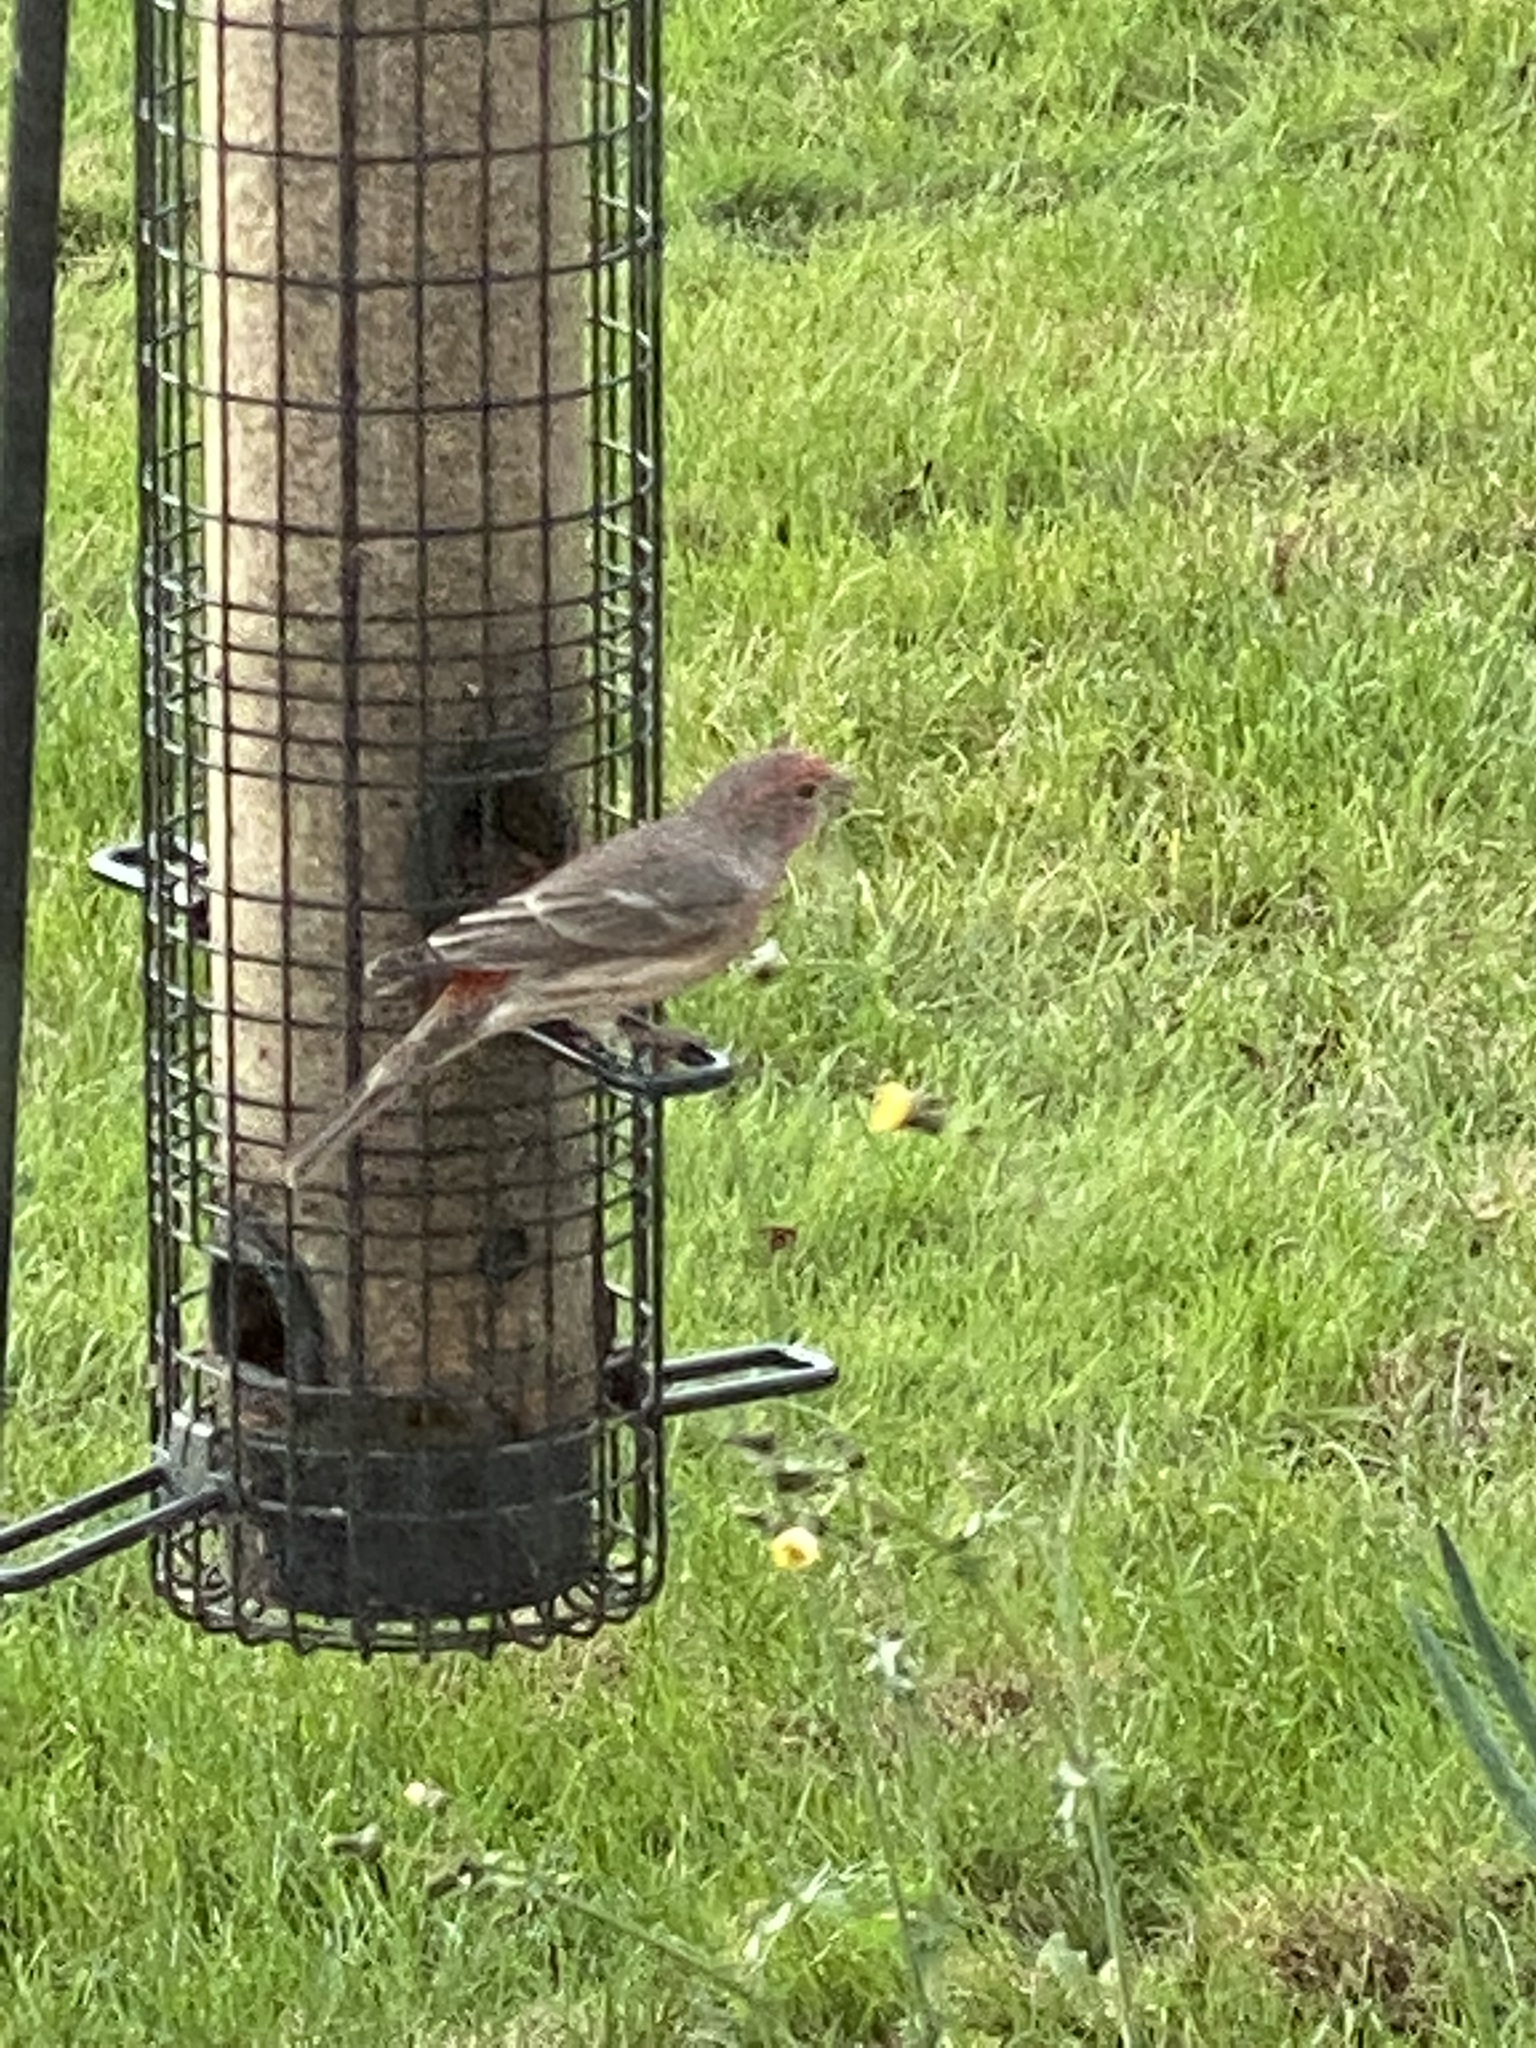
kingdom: Animalia
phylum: Chordata
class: Aves
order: Passeriformes
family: Fringillidae
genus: Haemorhous
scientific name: Haemorhous mexicanus
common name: House finch
